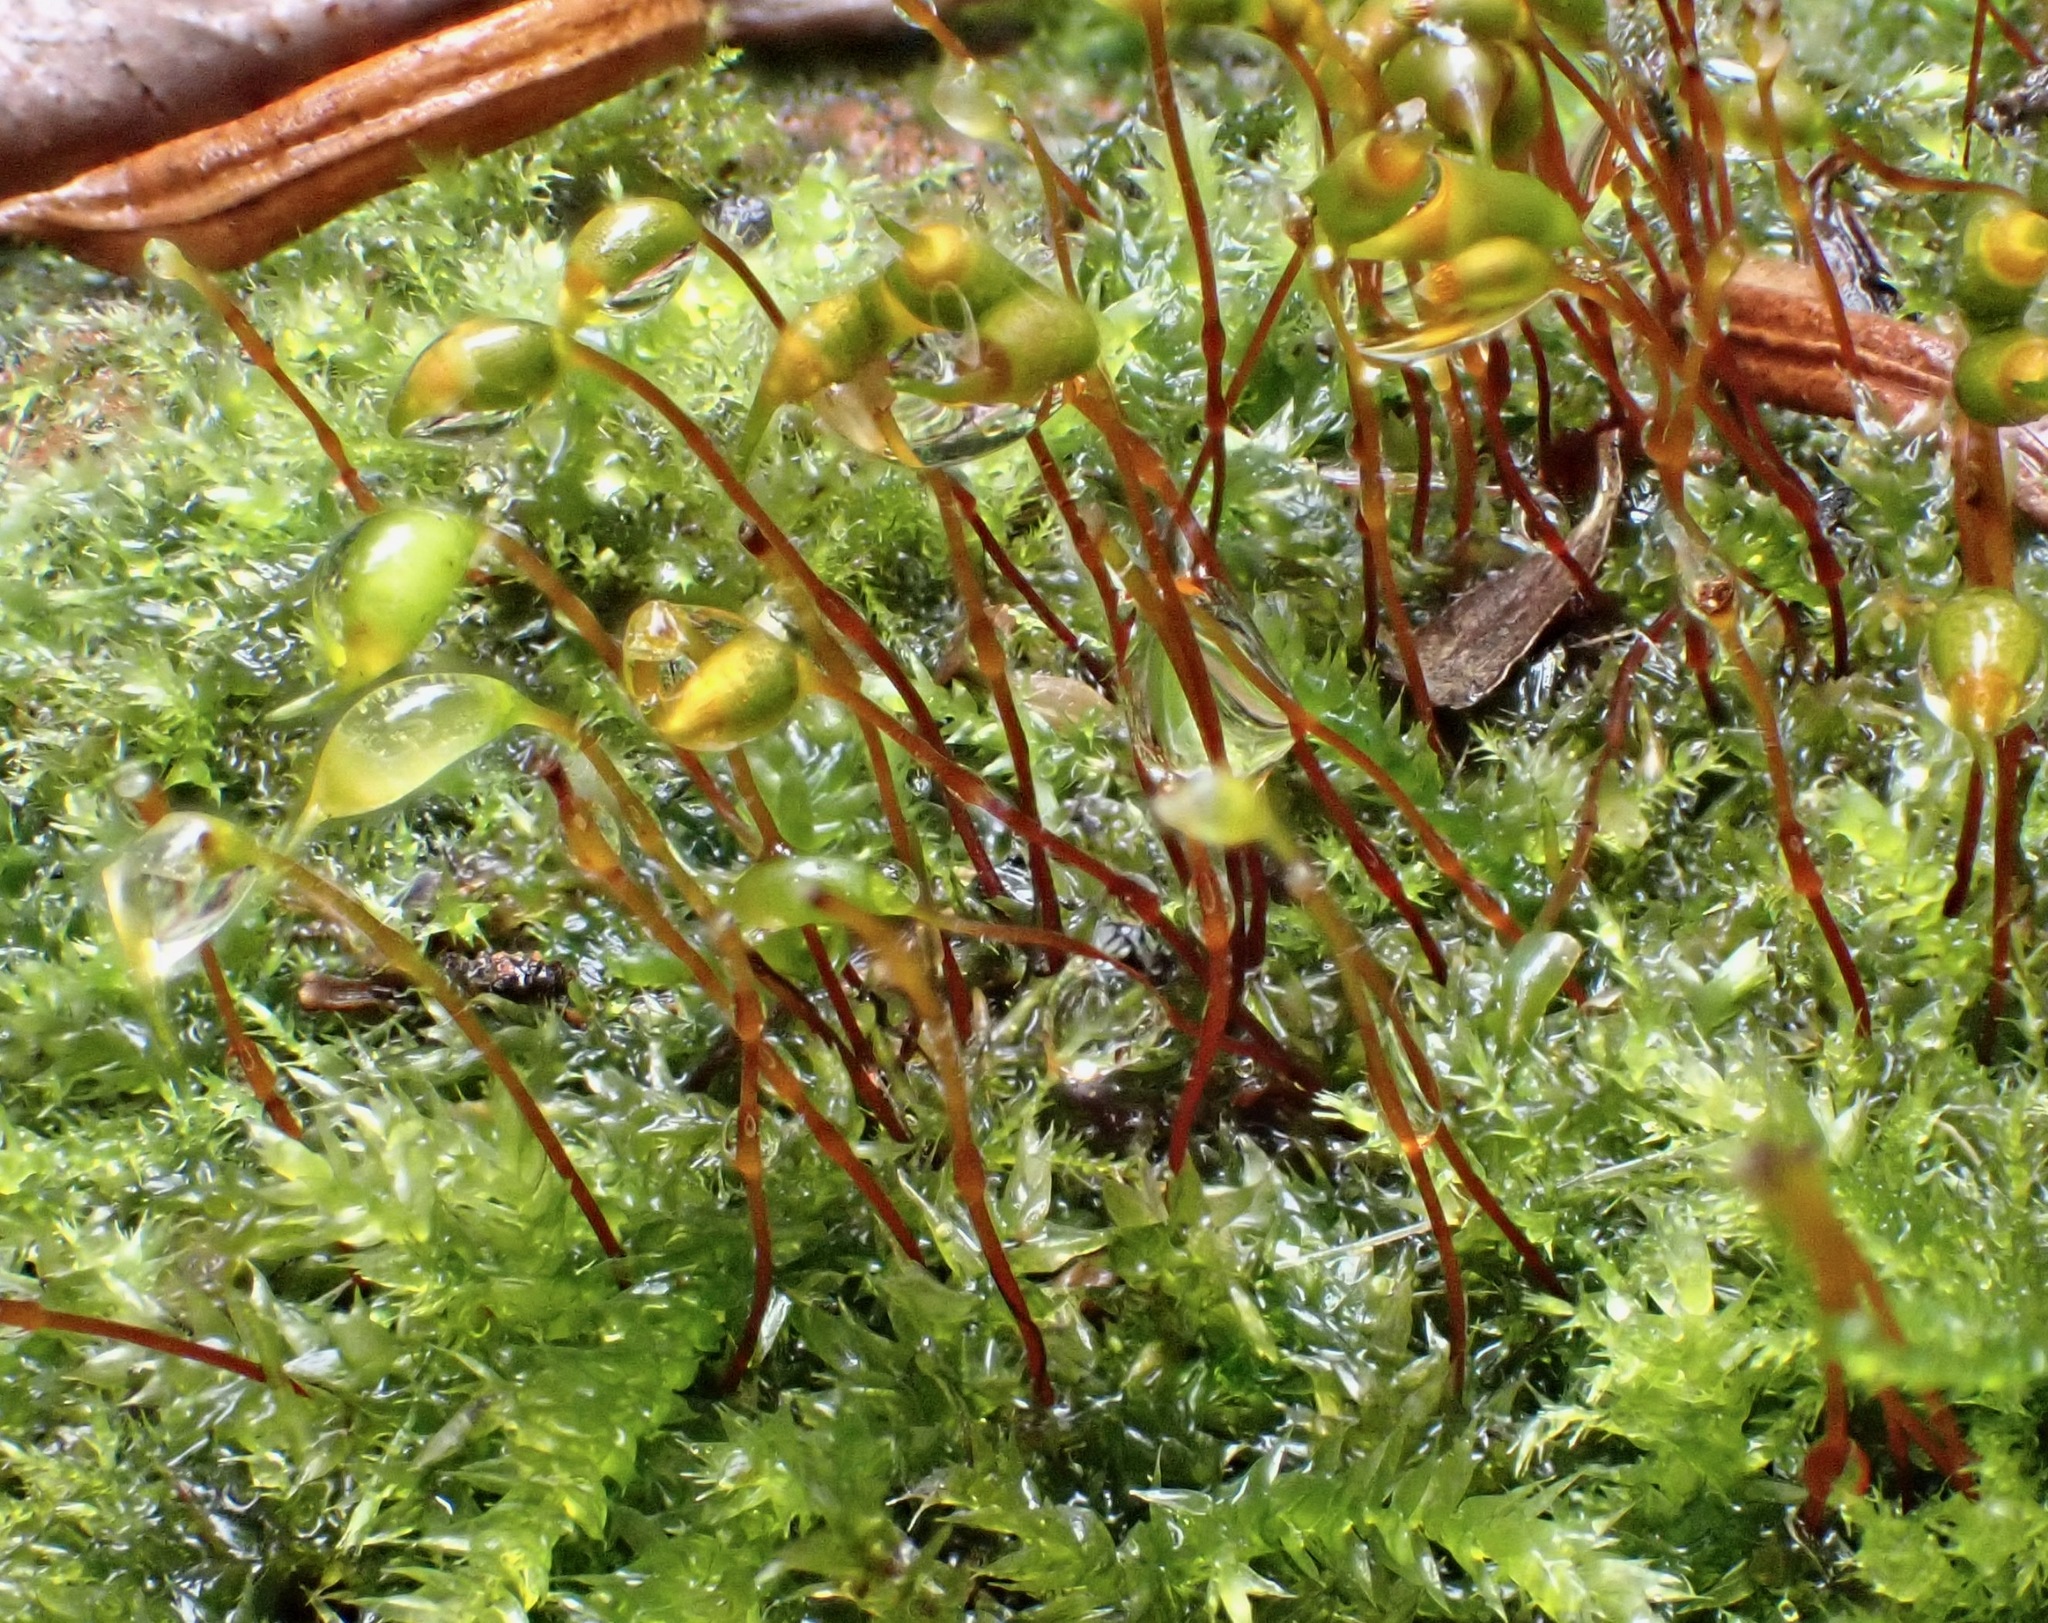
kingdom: Plantae
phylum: Bryophyta
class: Bryopsida
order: Hypnales
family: Brachytheciaceae
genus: Rhynchostegium
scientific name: Rhynchostegium confertum
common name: Clustered feather-moss
